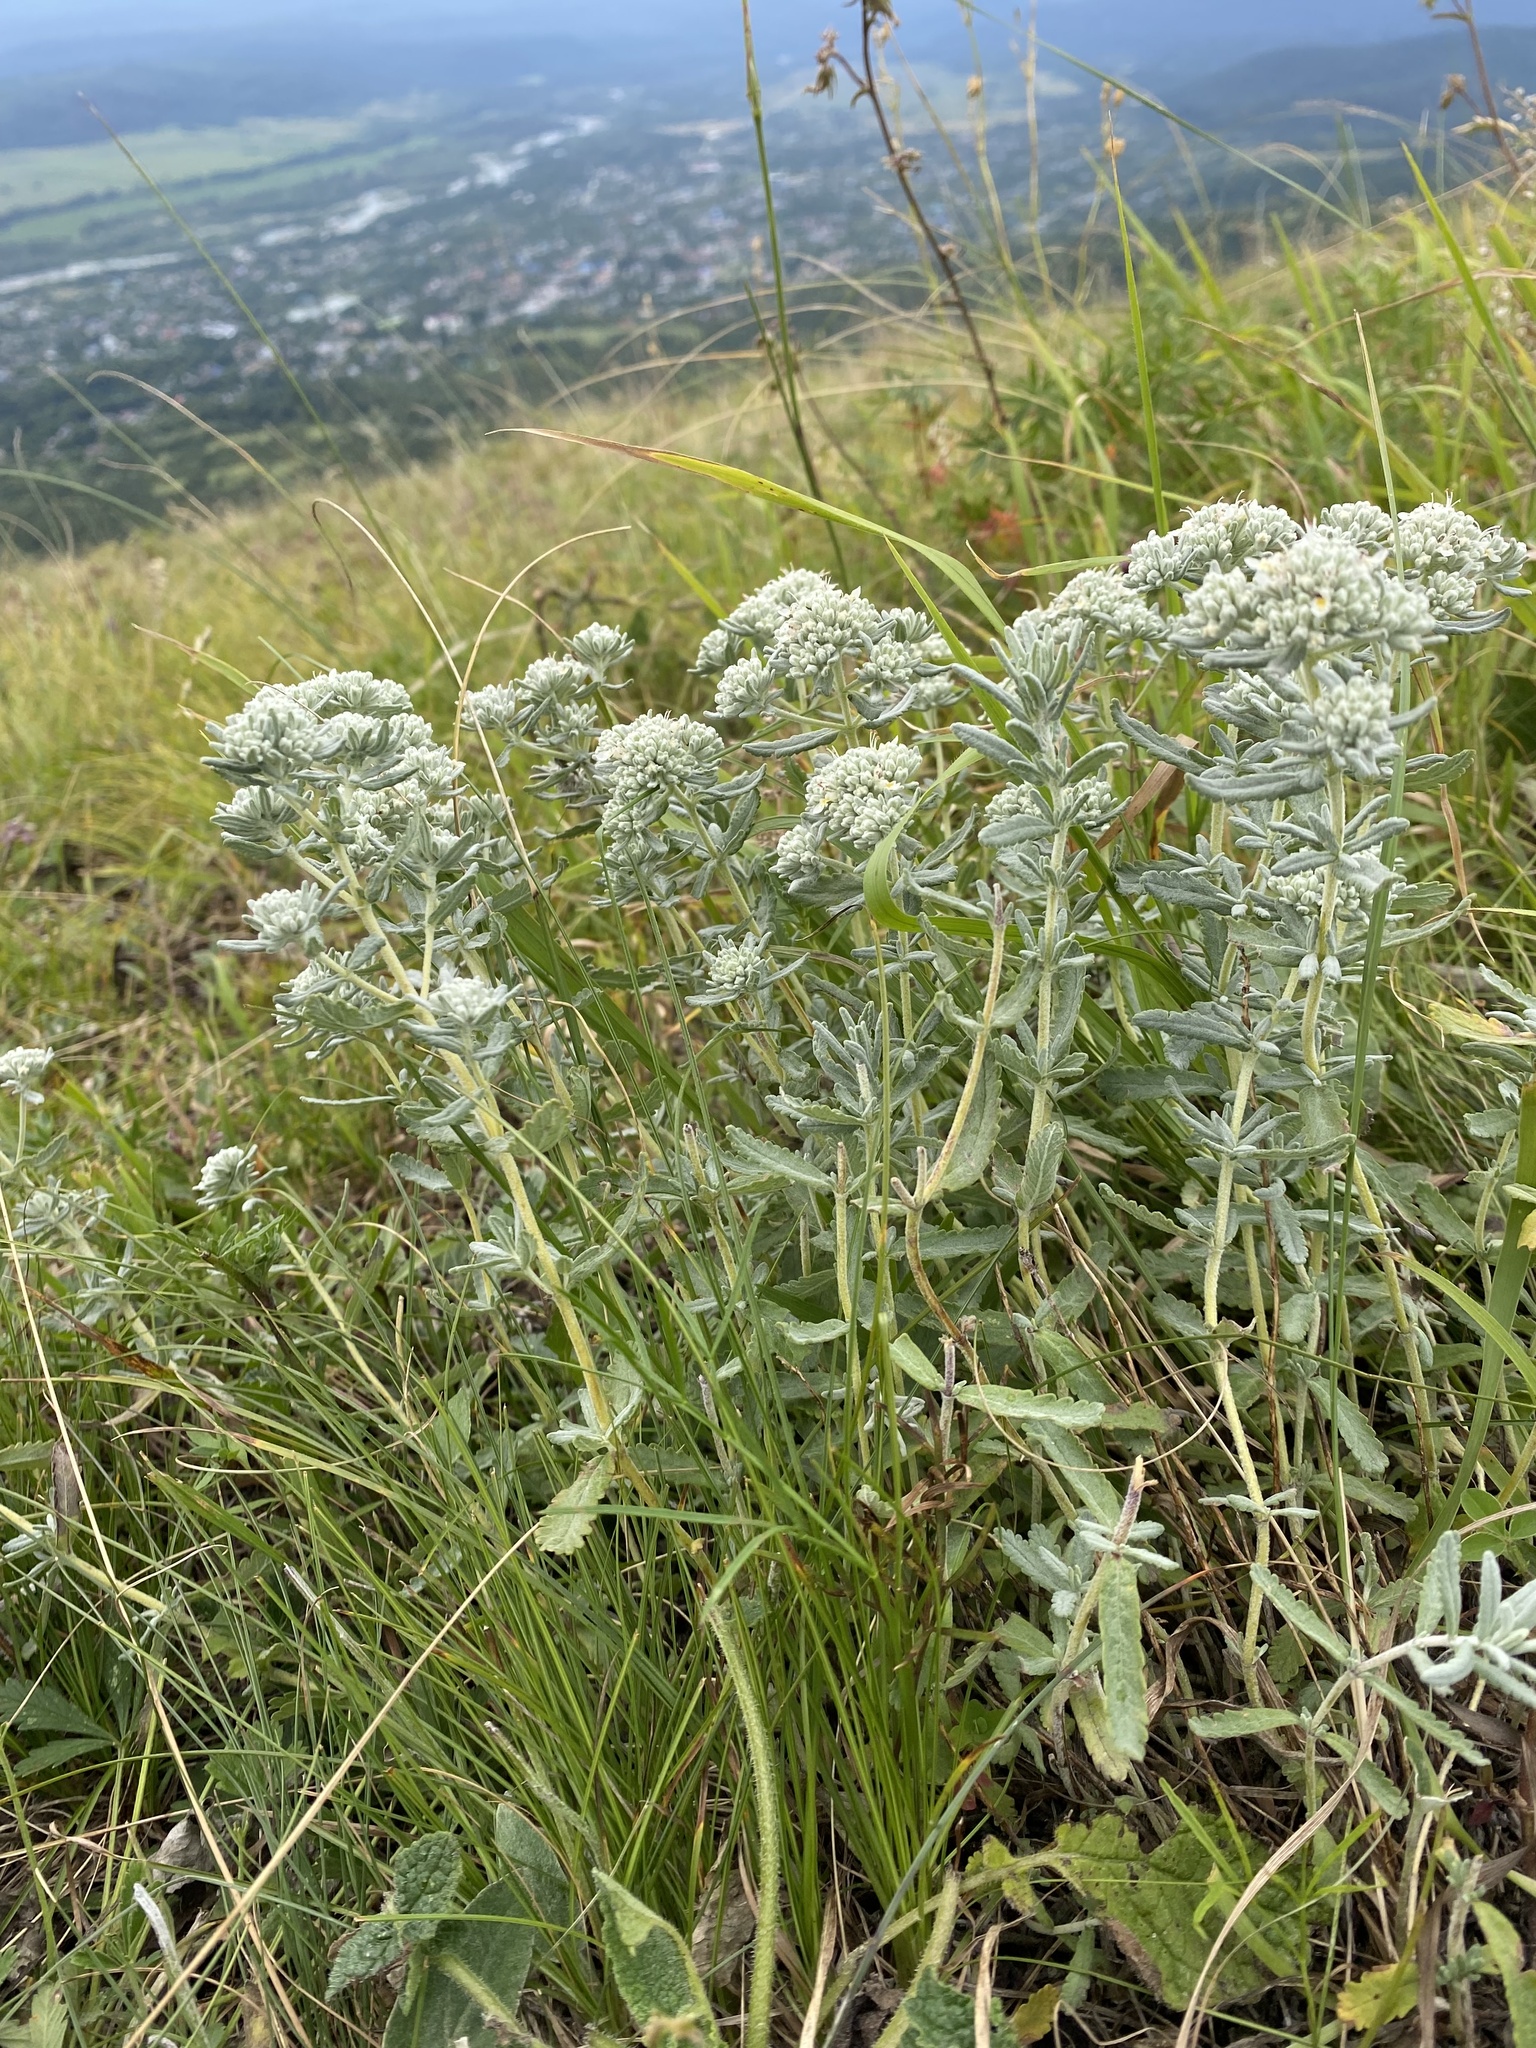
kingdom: Plantae
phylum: Tracheophyta
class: Magnoliopsida
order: Lamiales
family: Lamiaceae
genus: Teucrium
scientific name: Teucrium polium
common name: Poley
